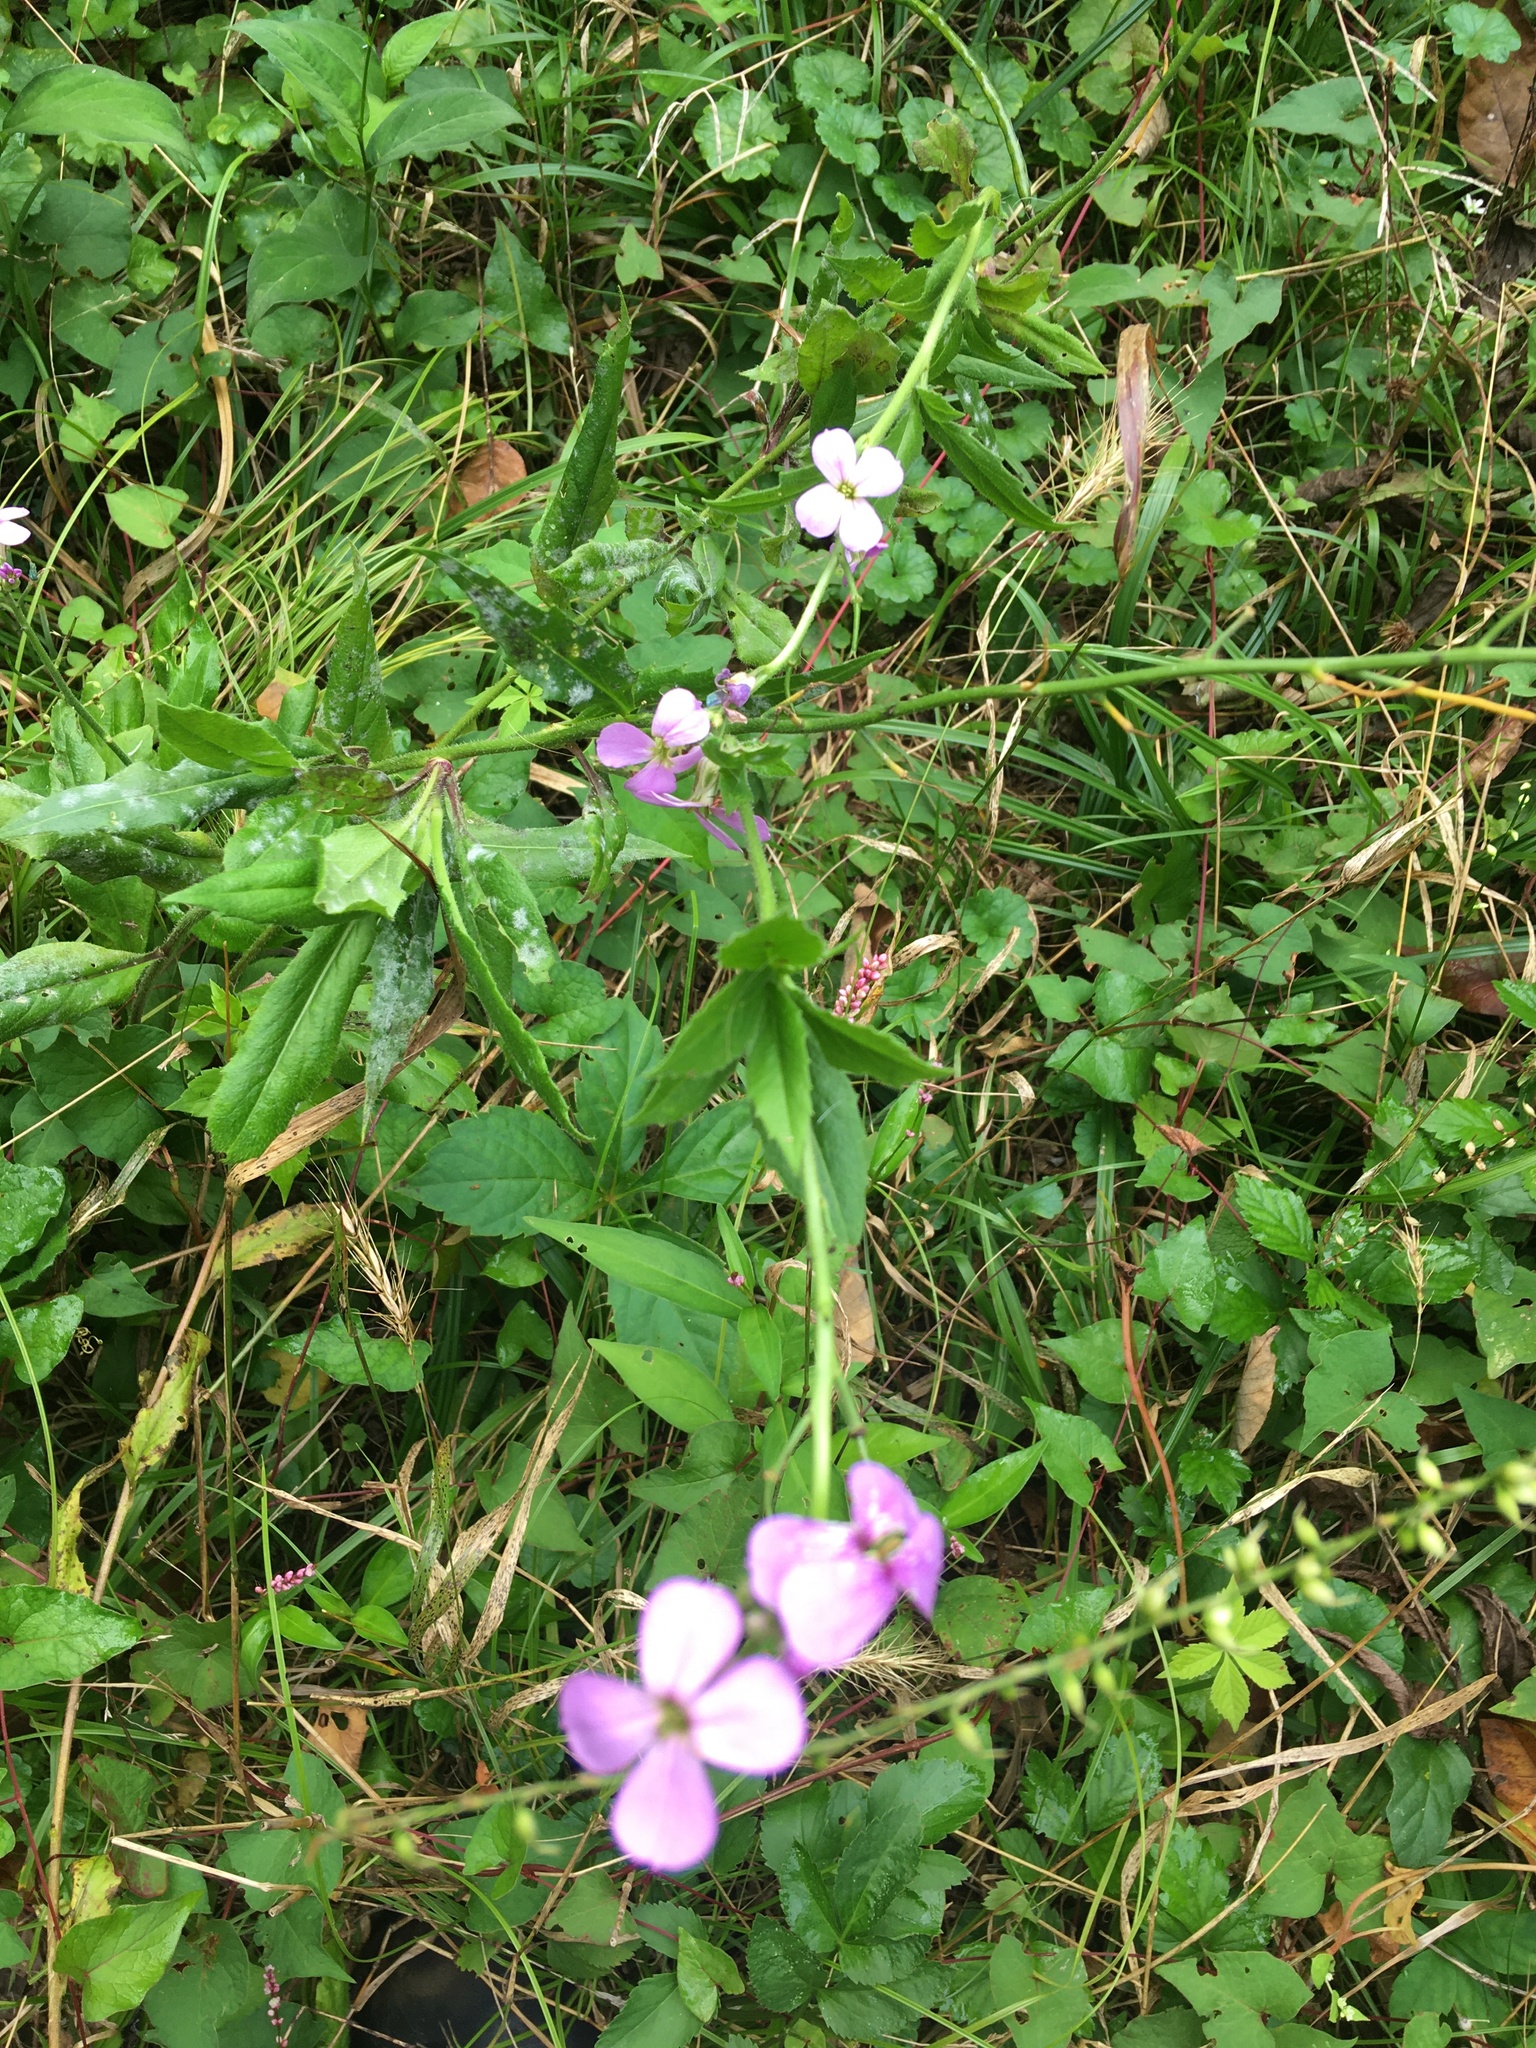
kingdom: Plantae
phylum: Tracheophyta
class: Magnoliopsida
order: Brassicales
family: Brassicaceae
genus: Hesperis
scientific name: Hesperis matronalis
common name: Dame's-violet
